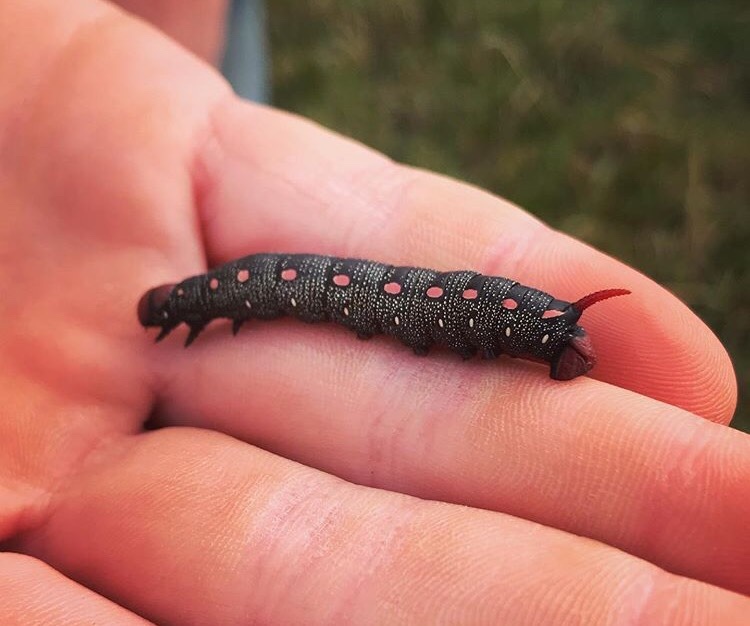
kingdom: Animalia
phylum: Arthropoda
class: Insecta
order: Lepidoptera
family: Sphingidae
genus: Hyles
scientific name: Hyles gallii
